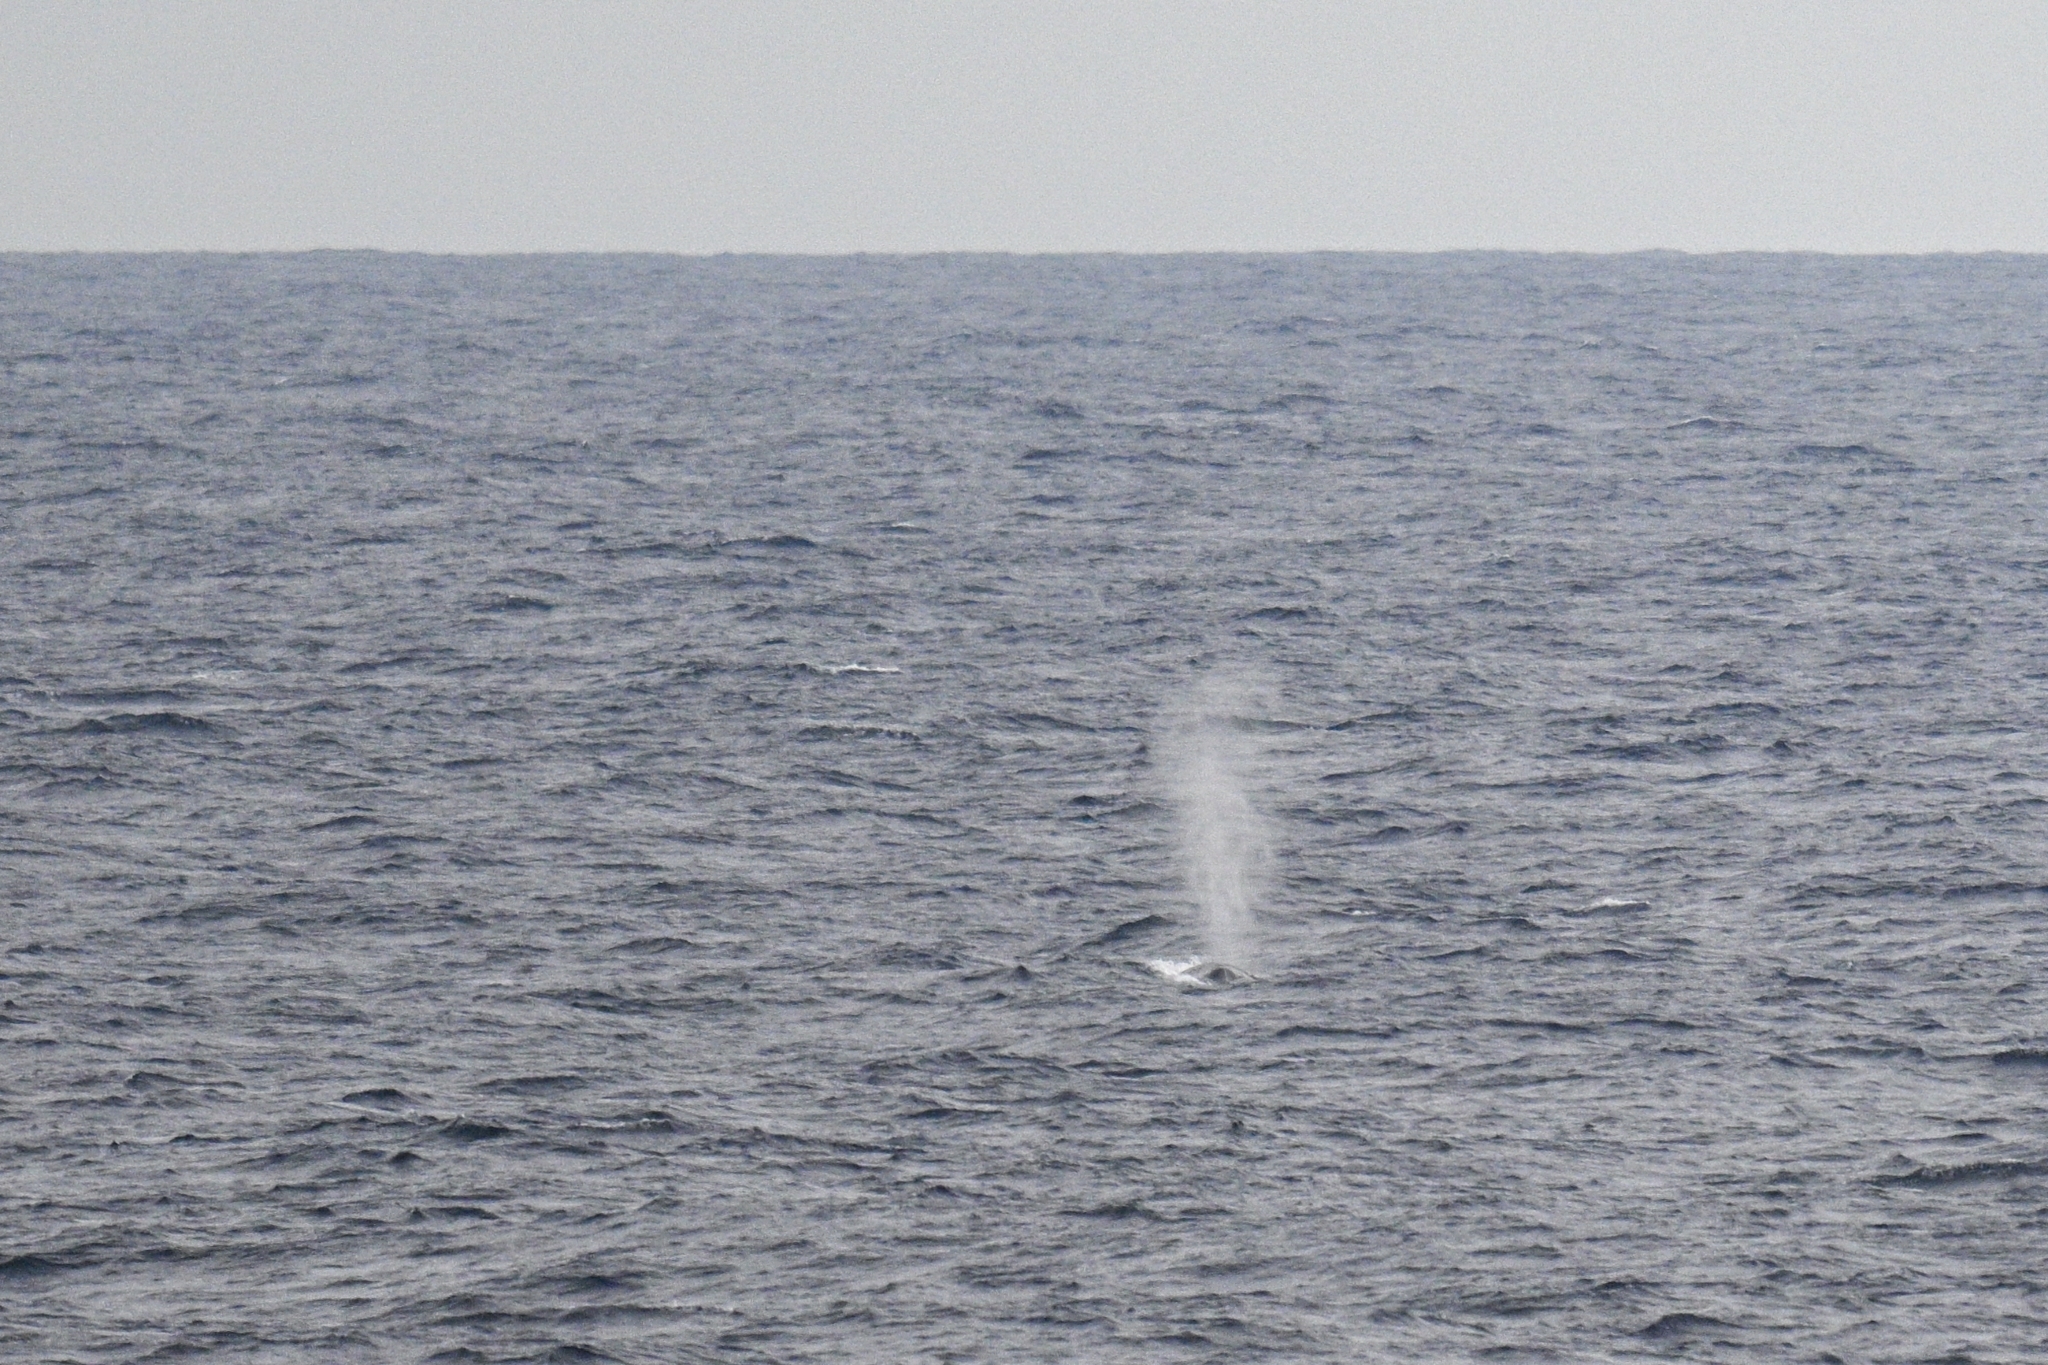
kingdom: Animalia
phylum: Chordata
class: Mammalia
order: Cetacea
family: Balaenopteridae
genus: Balaenoptera
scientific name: Balaenoptera physalus
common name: Fin whale
